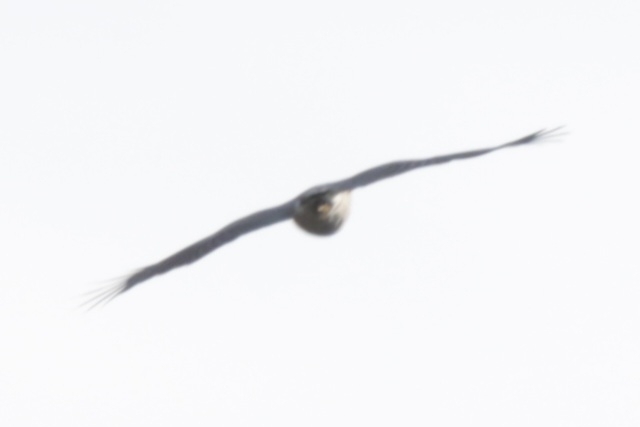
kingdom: Animalia
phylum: Chordata
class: Aves
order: Accipitriformes
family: Accipitridae
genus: Accipiter
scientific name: Accipiter nisus
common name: Eurasian sparrowhawk
